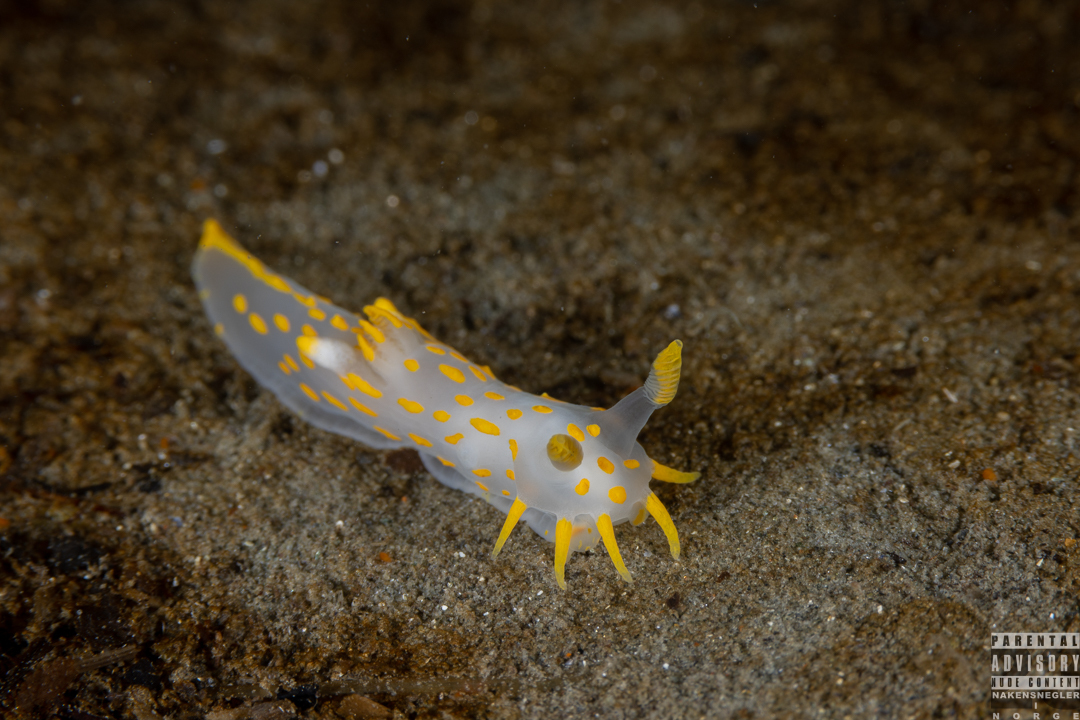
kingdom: Animalia
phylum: Mollusca
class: Gastropoda
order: Nudibranchia
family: Polyceridae
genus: Polycera
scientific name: Polycera quadrilineata
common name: Four-striped polycera
